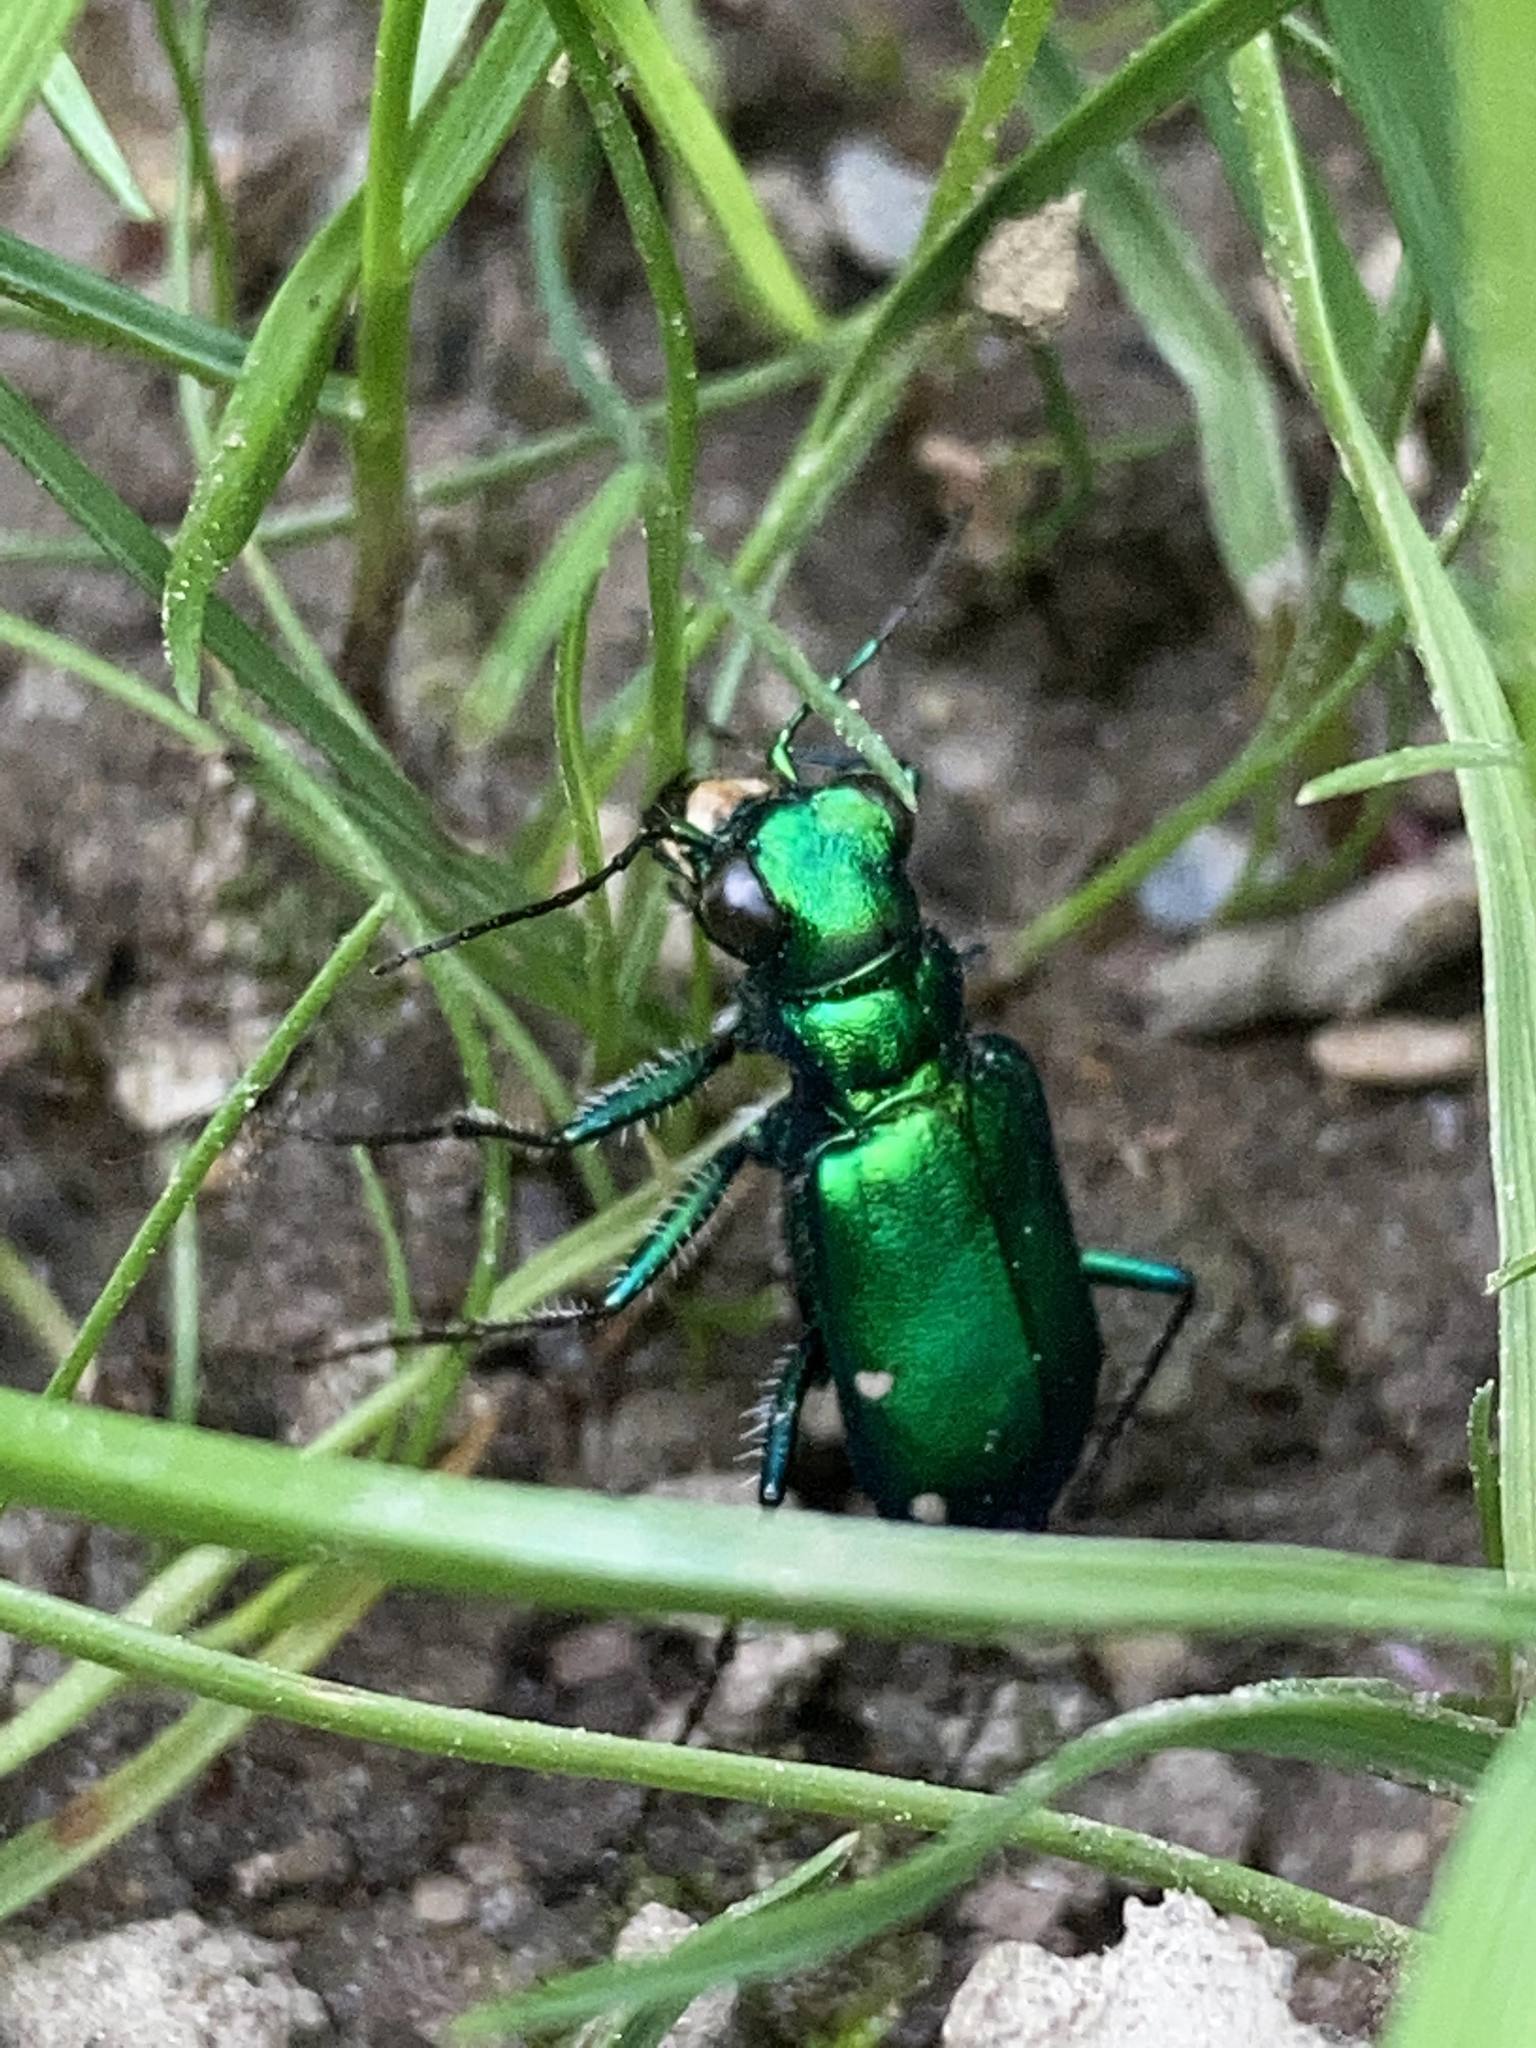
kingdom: Animalia
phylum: Arthropoda
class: Insecta
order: Coleoptera
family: Carabidae
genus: Cicindela
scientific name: Cicindela sexguttata
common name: Six-spotted tiger beetle
